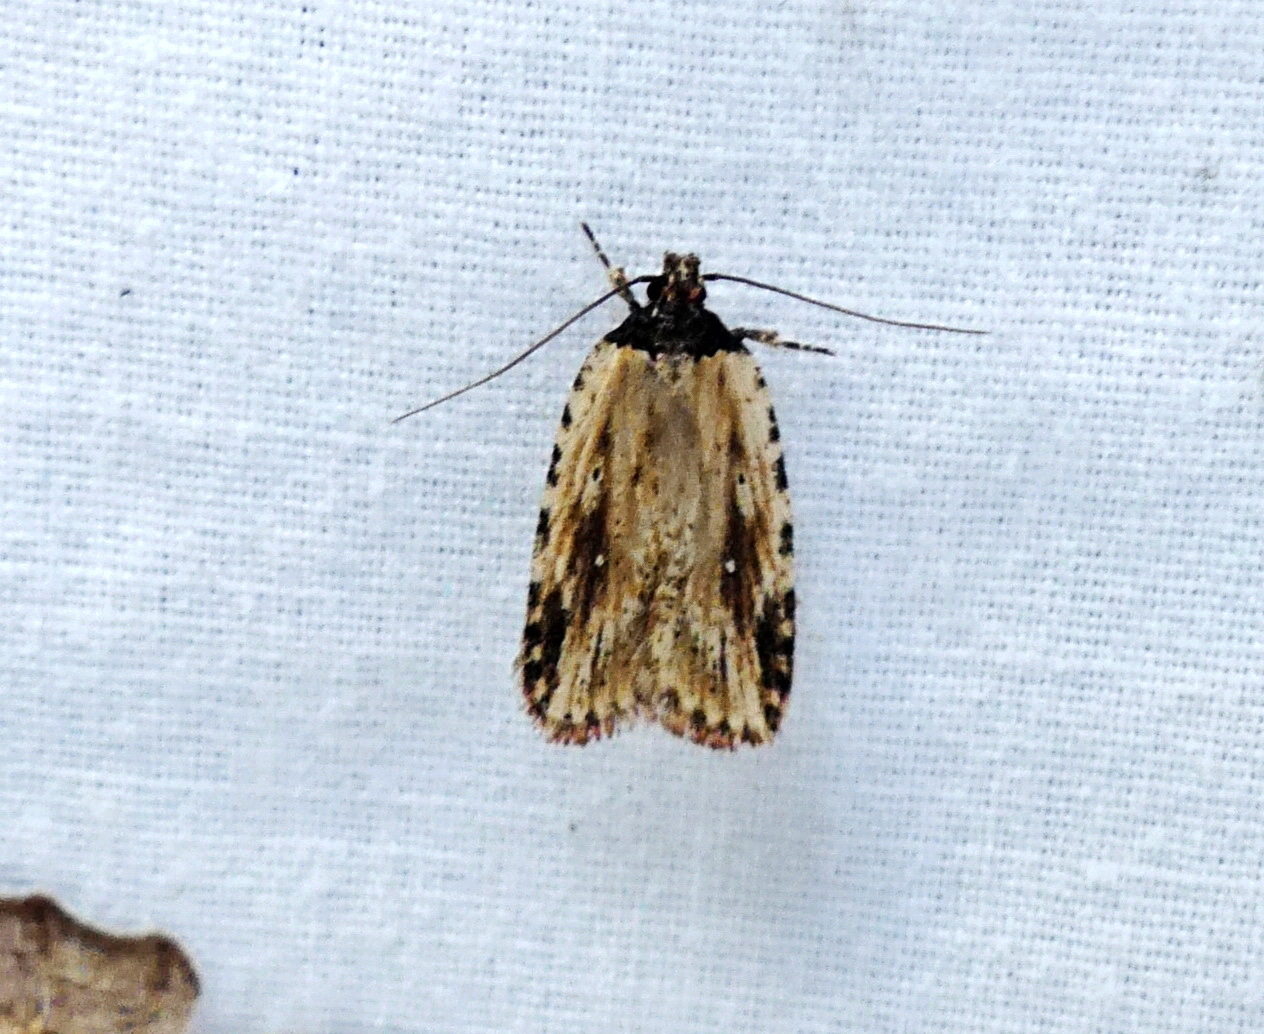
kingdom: Animalia
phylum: Arthropoda
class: Insecta
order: Lepidoptera
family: Depressariidae
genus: Agonopterix
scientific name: Agonopterix atrodorsella
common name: Beggartick leaffolder
